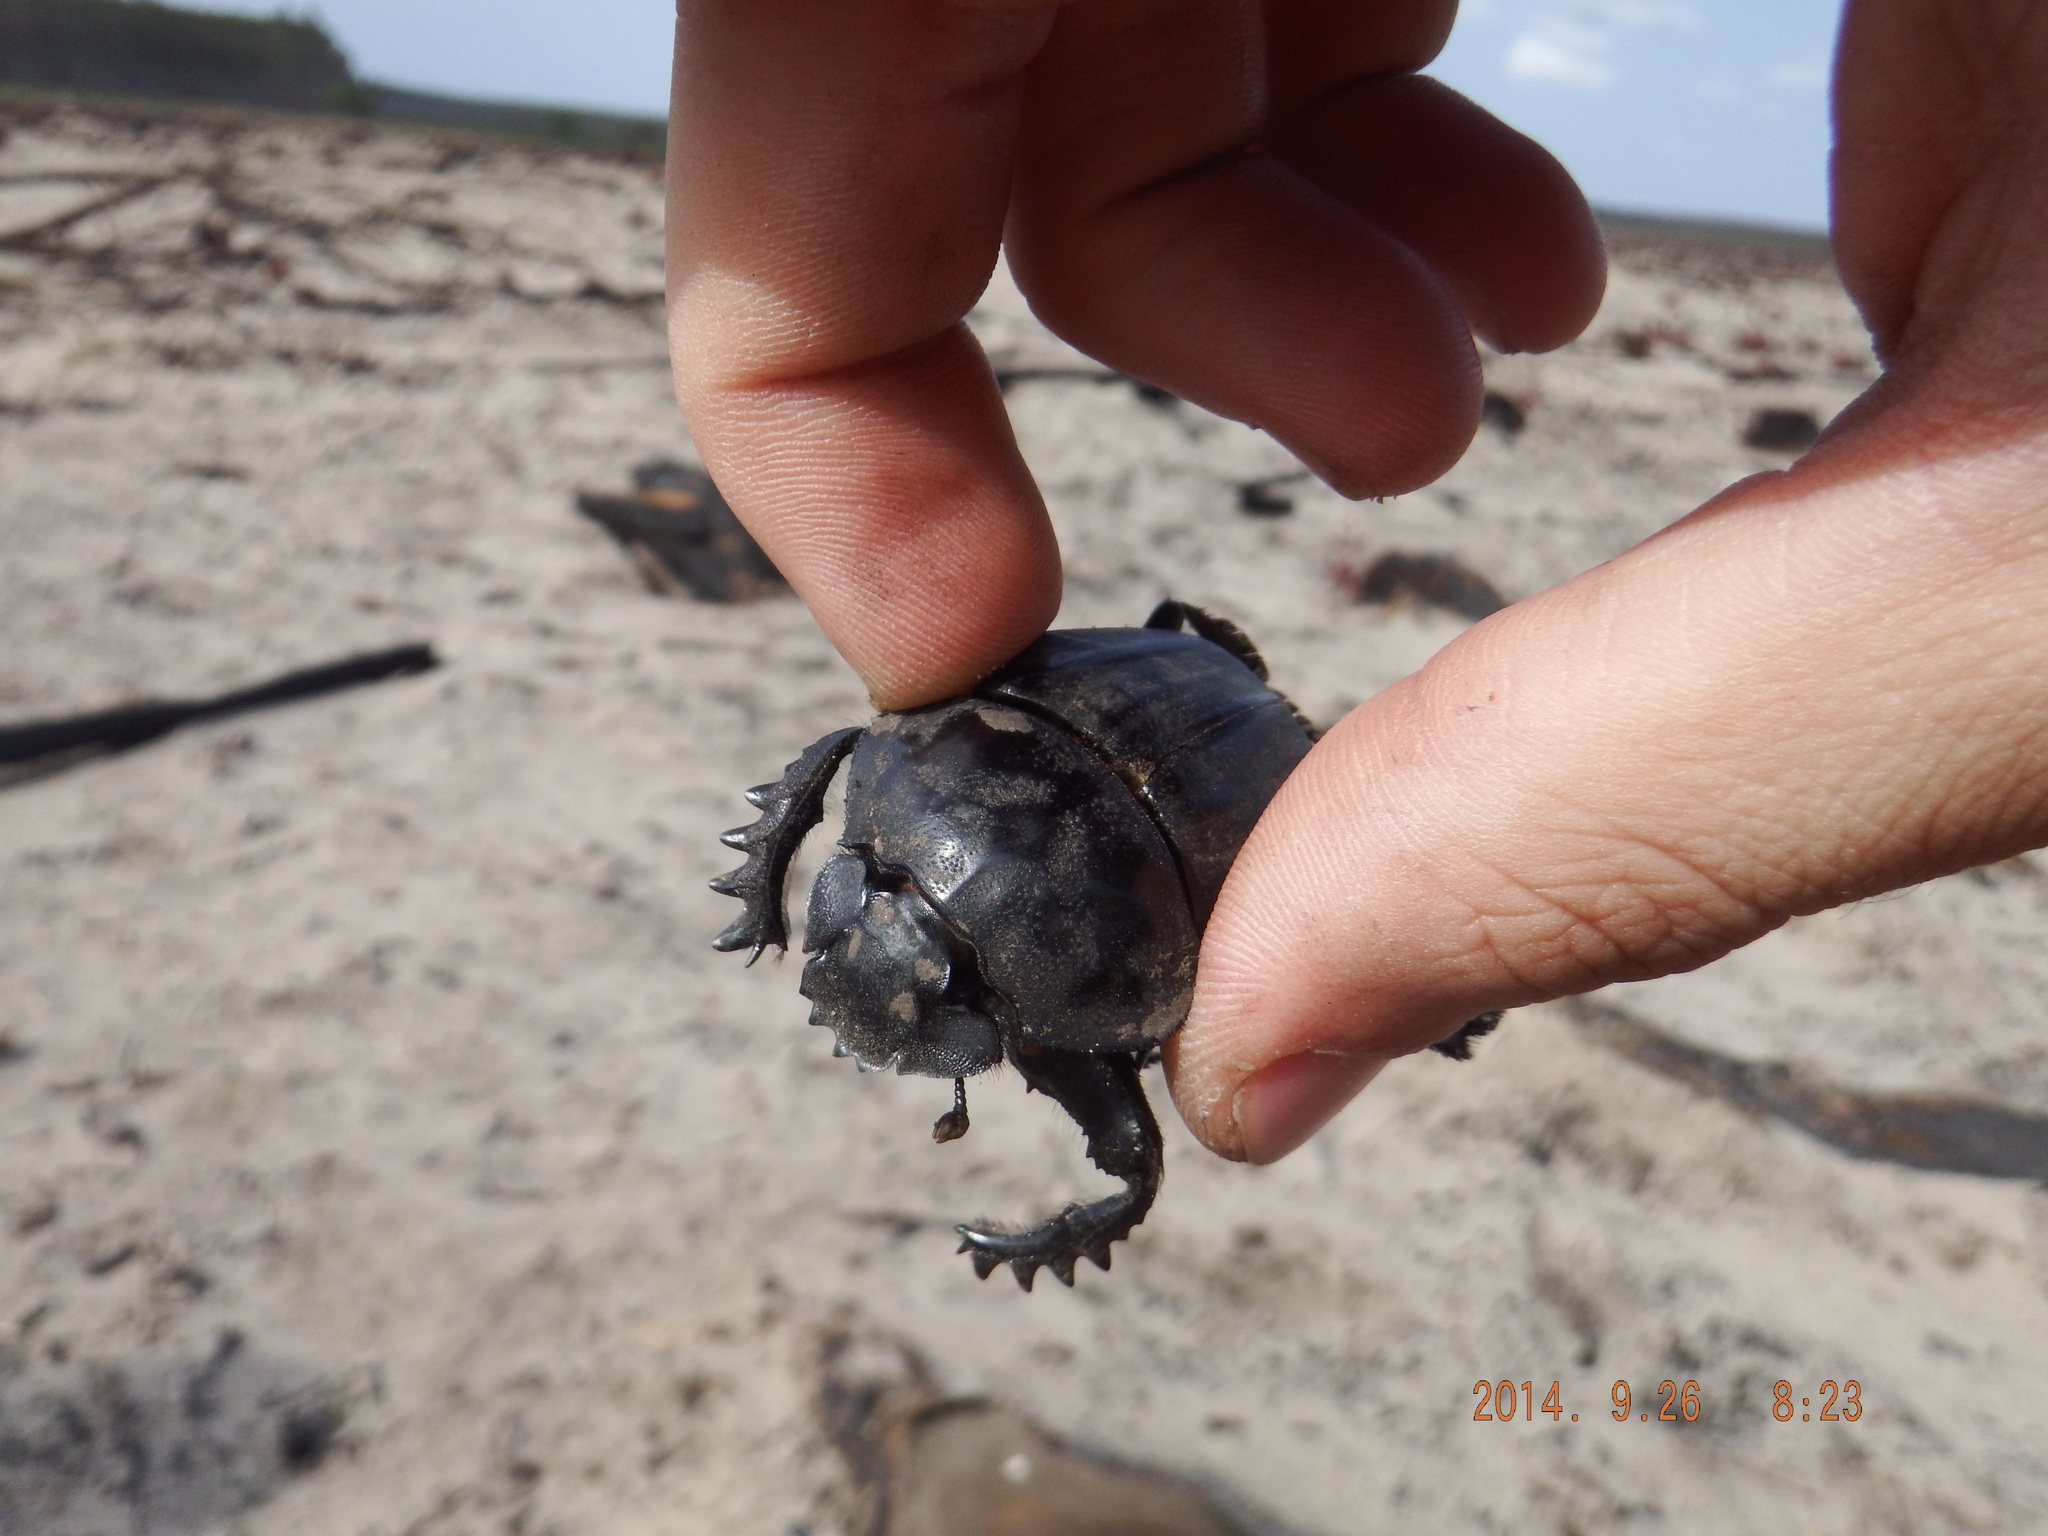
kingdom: Animalia
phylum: Arthropoda
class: Insecta
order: Coleoptera
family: Scarabaeidae
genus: Pachylomera
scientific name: Pachylomera femoralis
